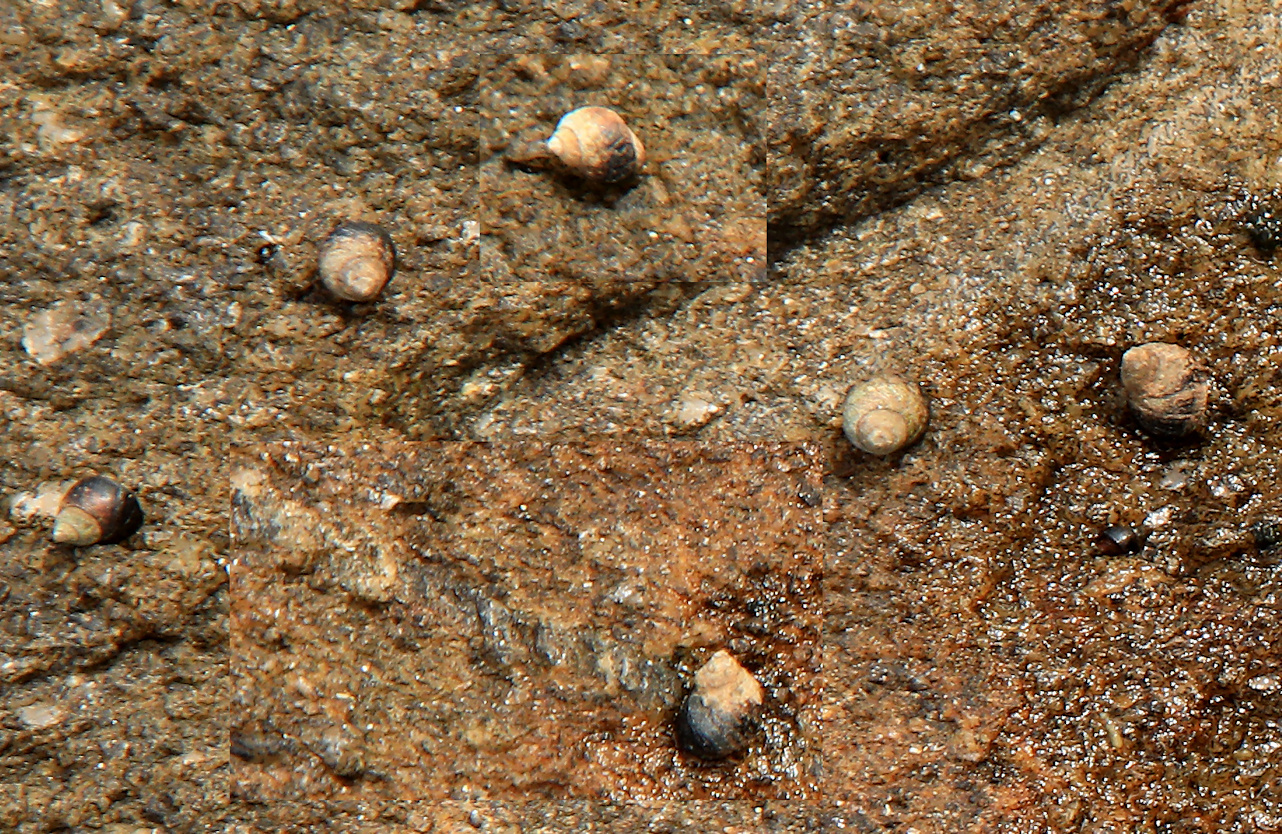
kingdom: Animalia
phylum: Mollusca
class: Gastropoda
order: Littorinimorpha
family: Littorinidae
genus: Afrolittorina
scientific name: Afrolittorina knysnaensis
